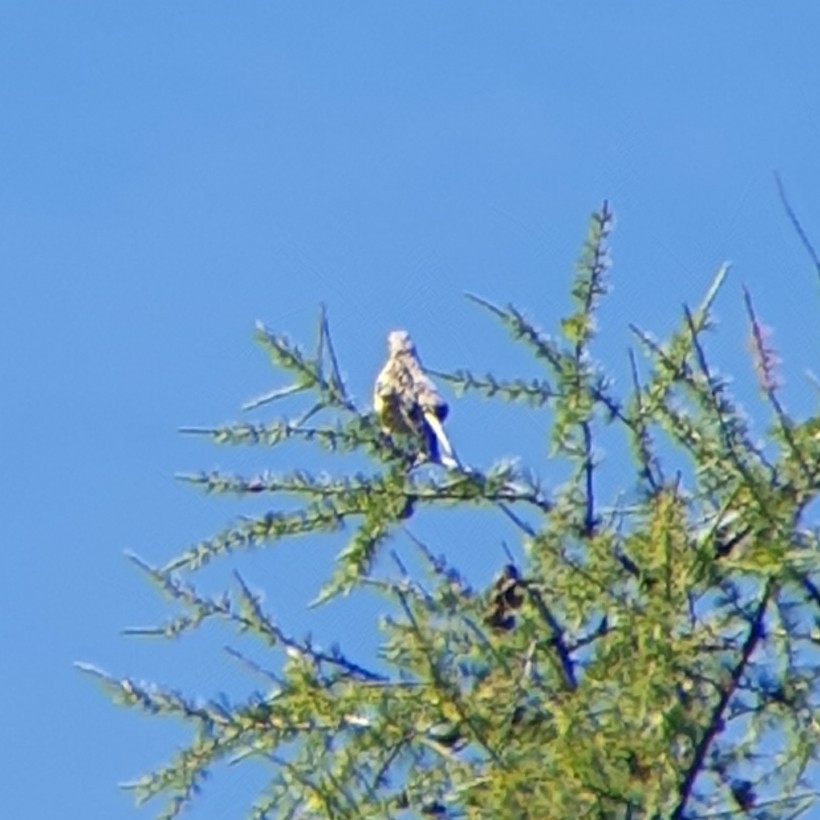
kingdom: Animalia
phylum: Chordata
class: Aves
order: Passeriformes
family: Turdidae
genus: Turdus
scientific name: Turdus viscivorus
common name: Mistle thrush
